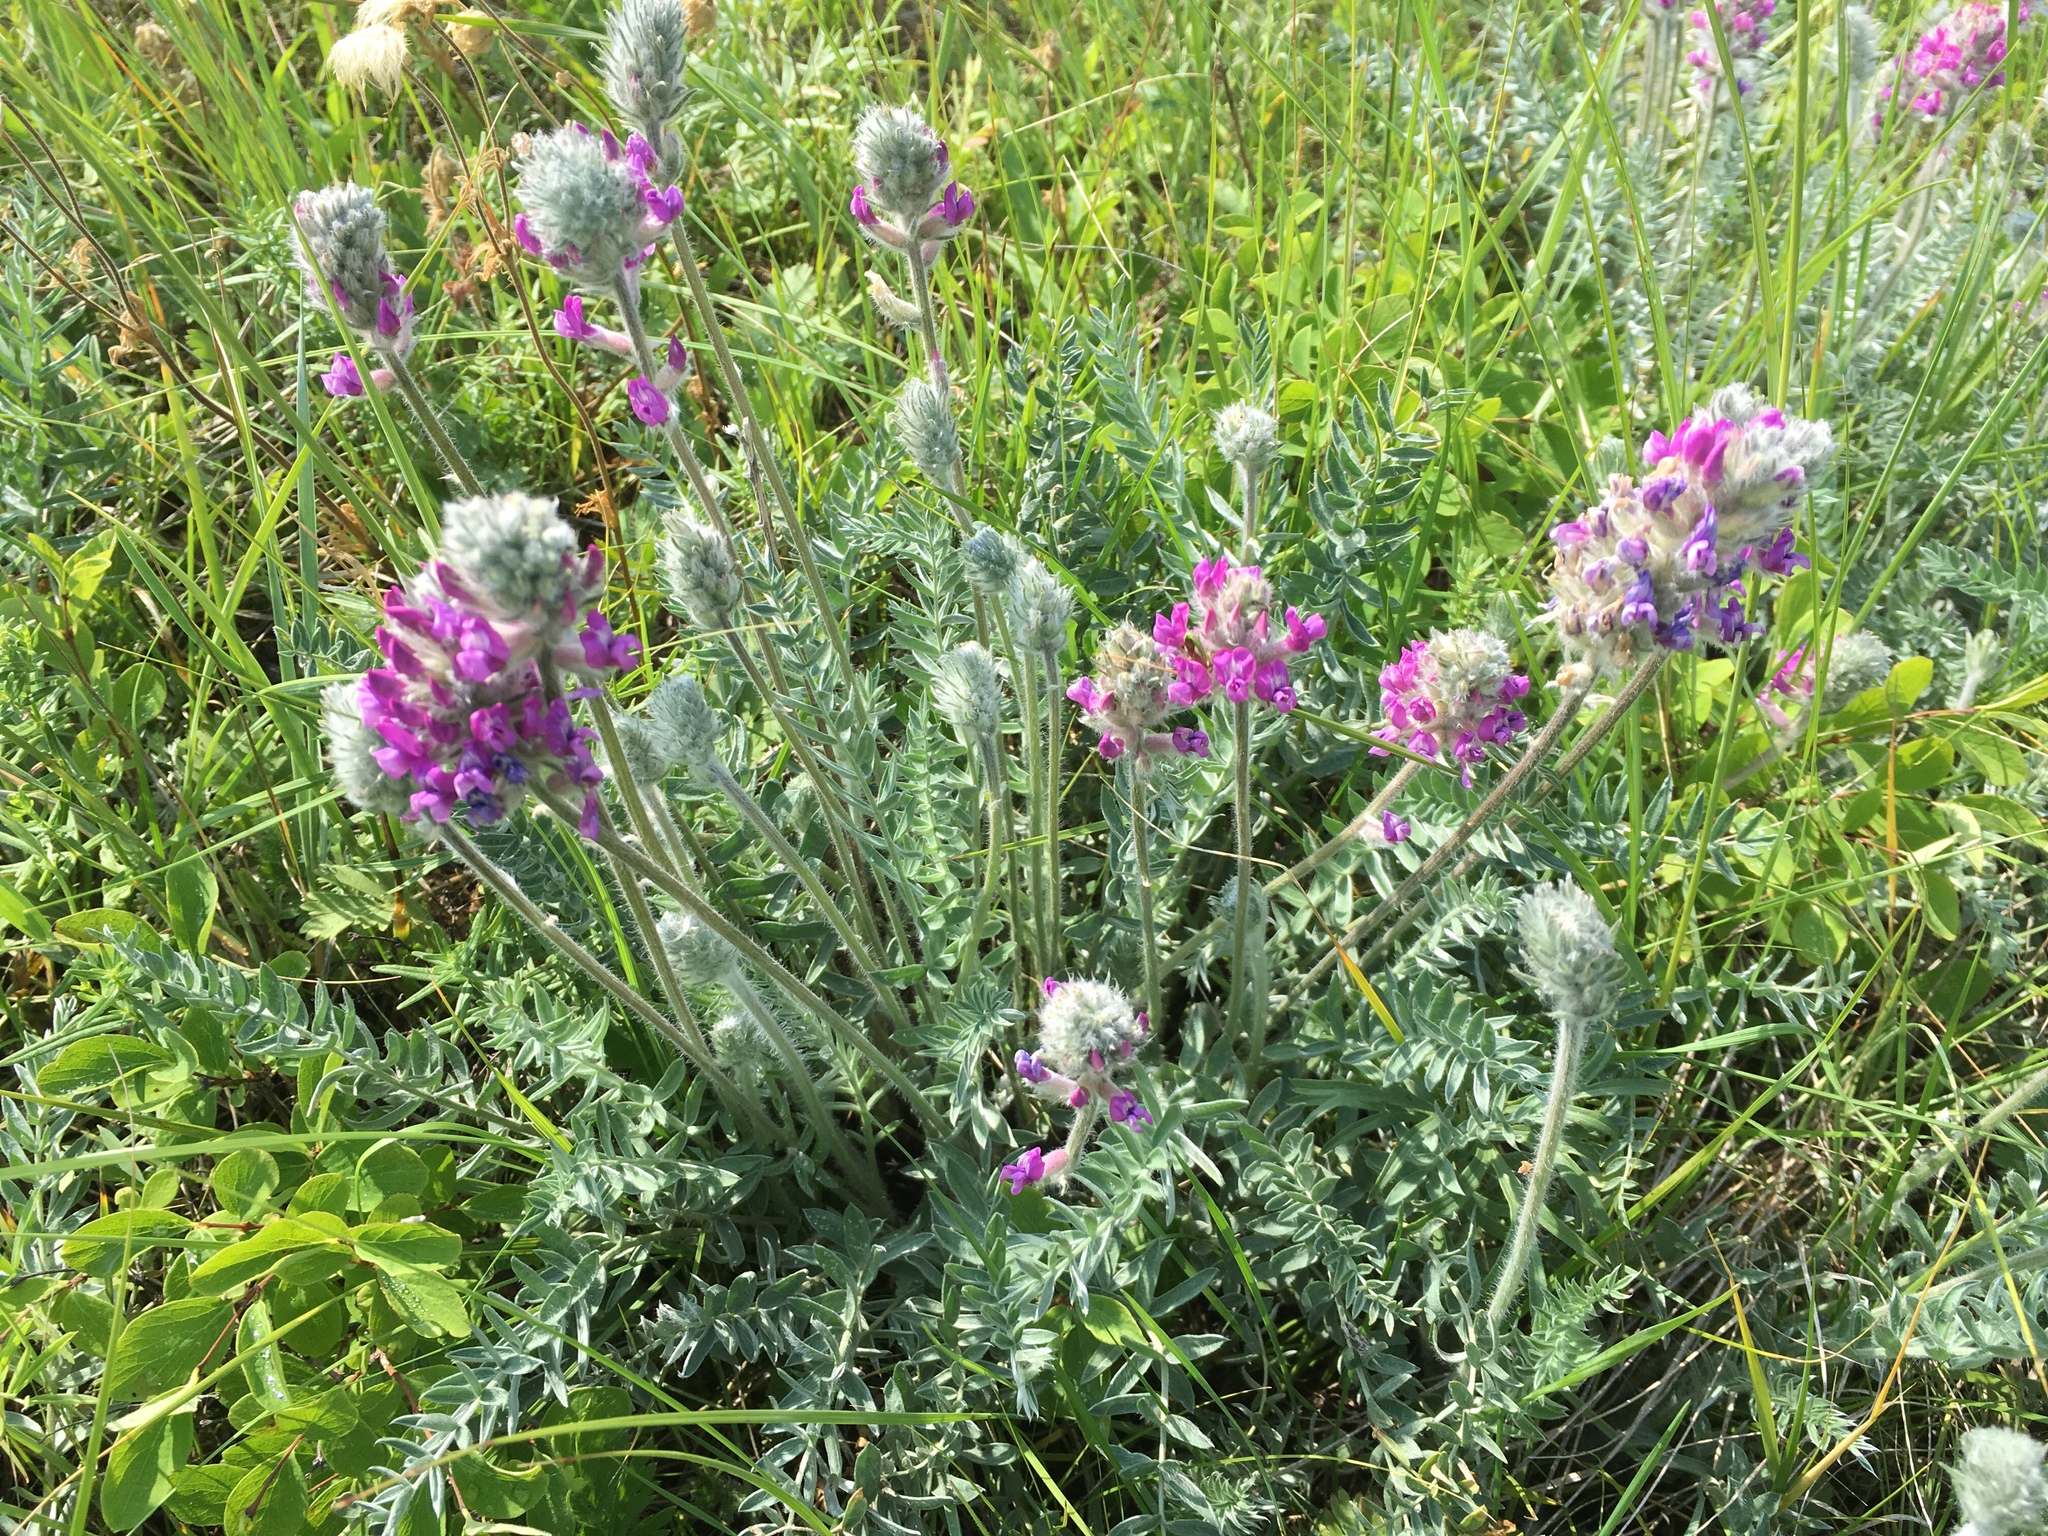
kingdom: Plantae
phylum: Tracheophyta
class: Magnoliopsida
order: Fabales
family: Fabaceae
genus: Oxytropis
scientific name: Oxytropis splendens
